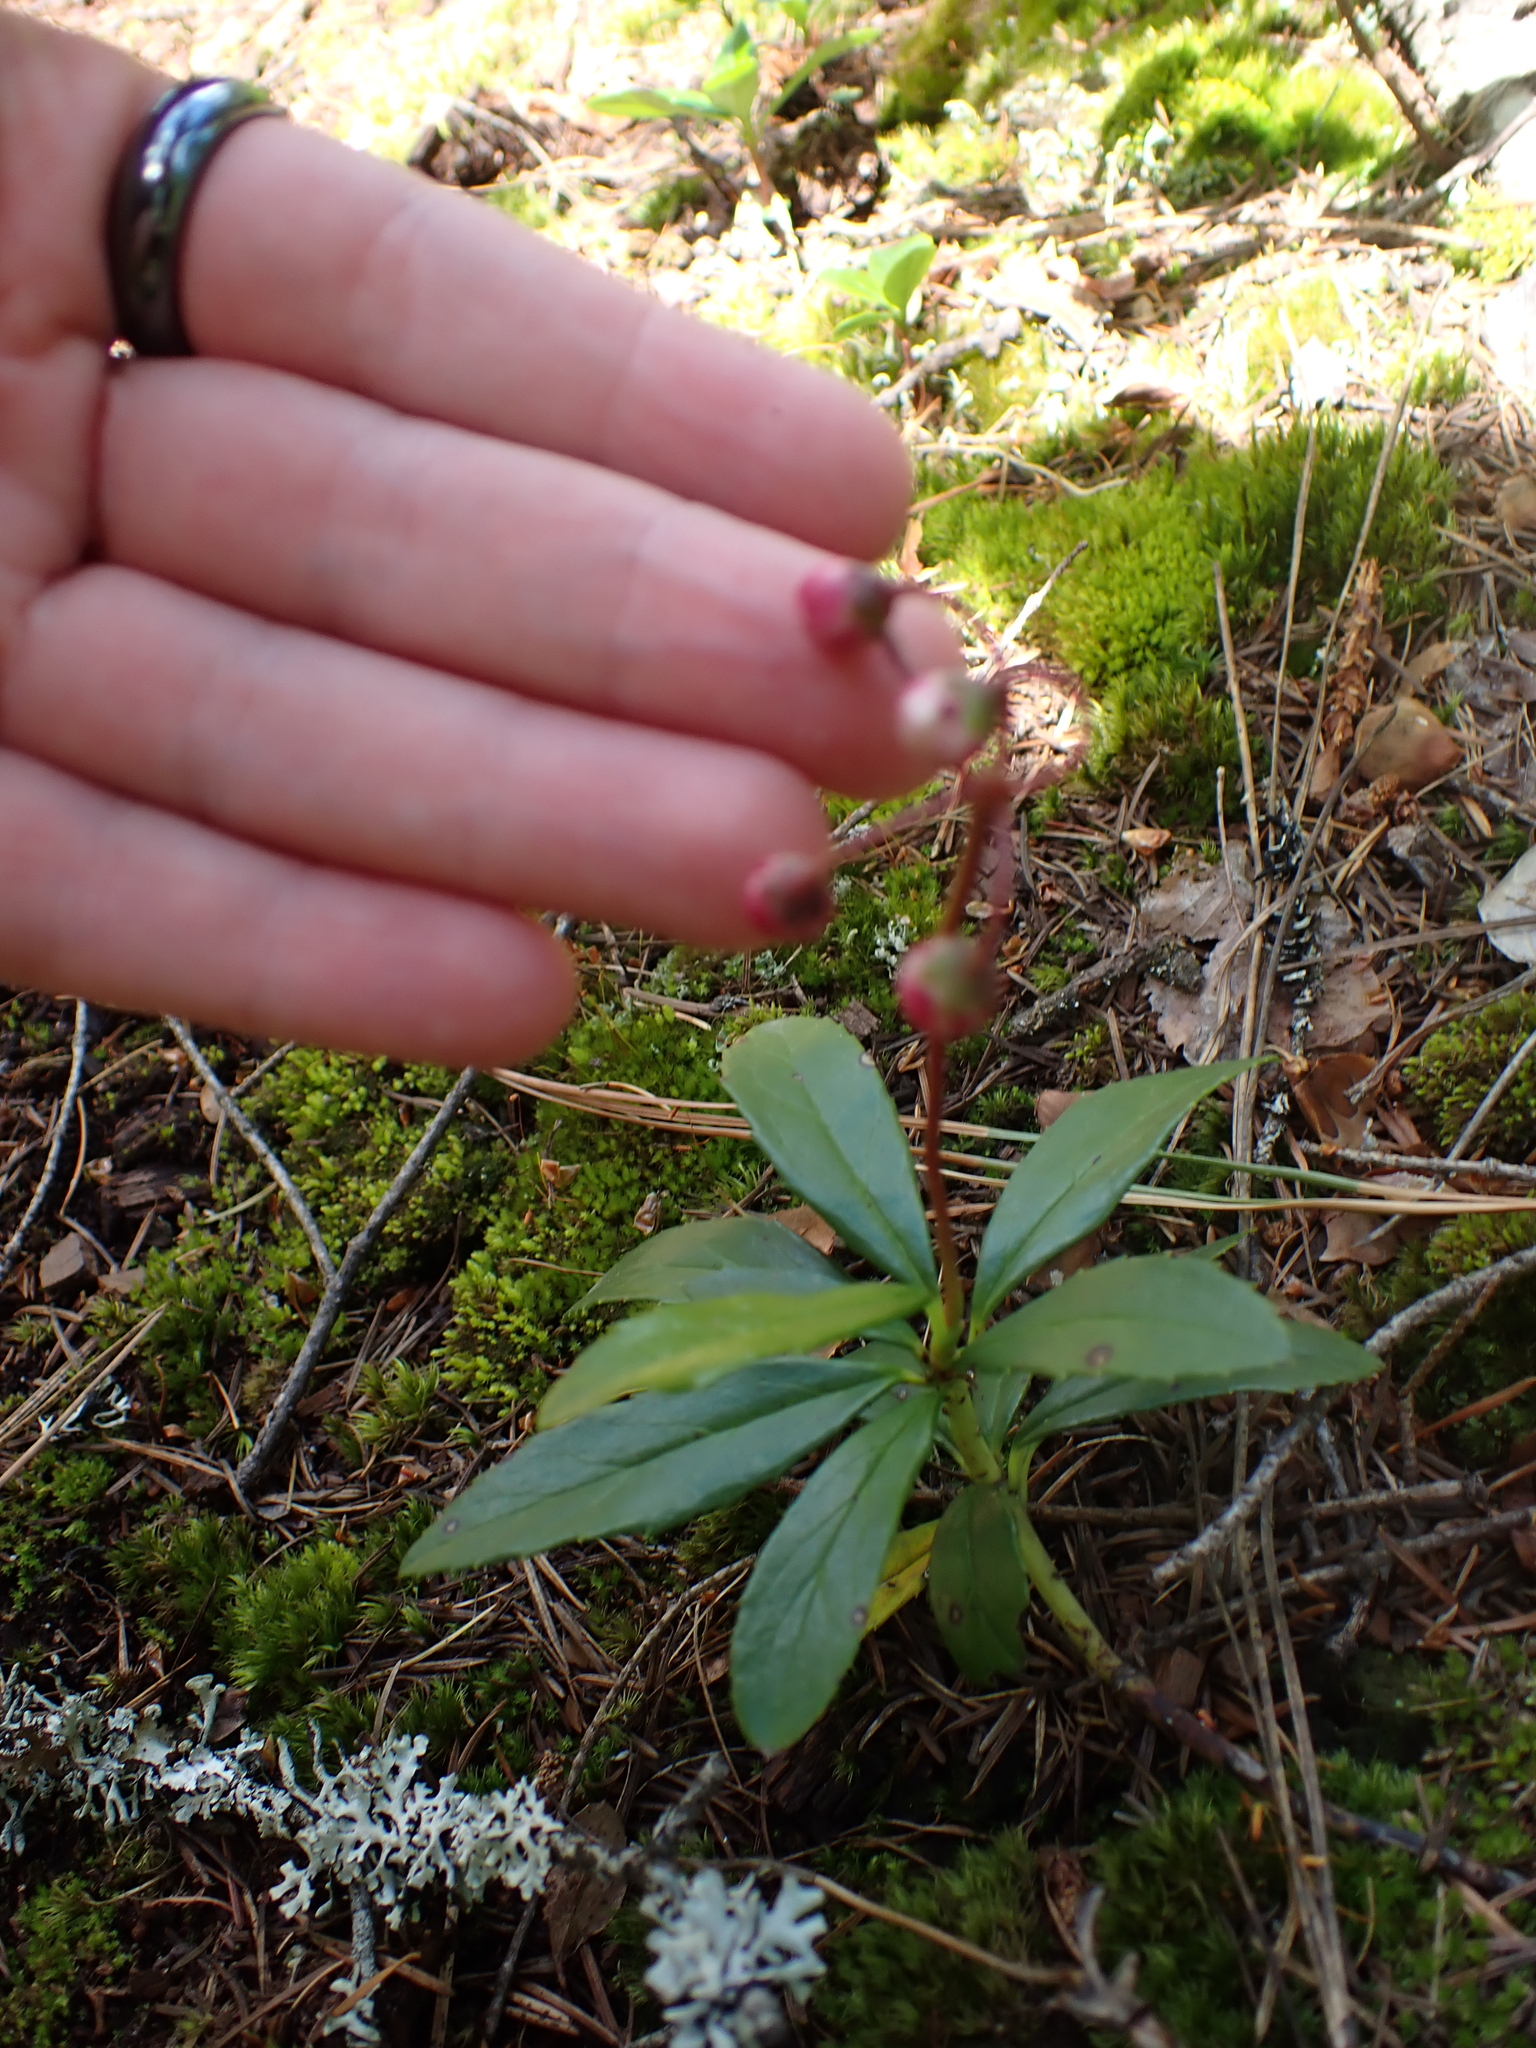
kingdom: Plantae
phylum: Tracheophyta
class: Magnoliopsida
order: Ericales
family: Ericaceae
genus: Chimaphila
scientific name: Chimaphila umbellata
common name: Pipsissewa
